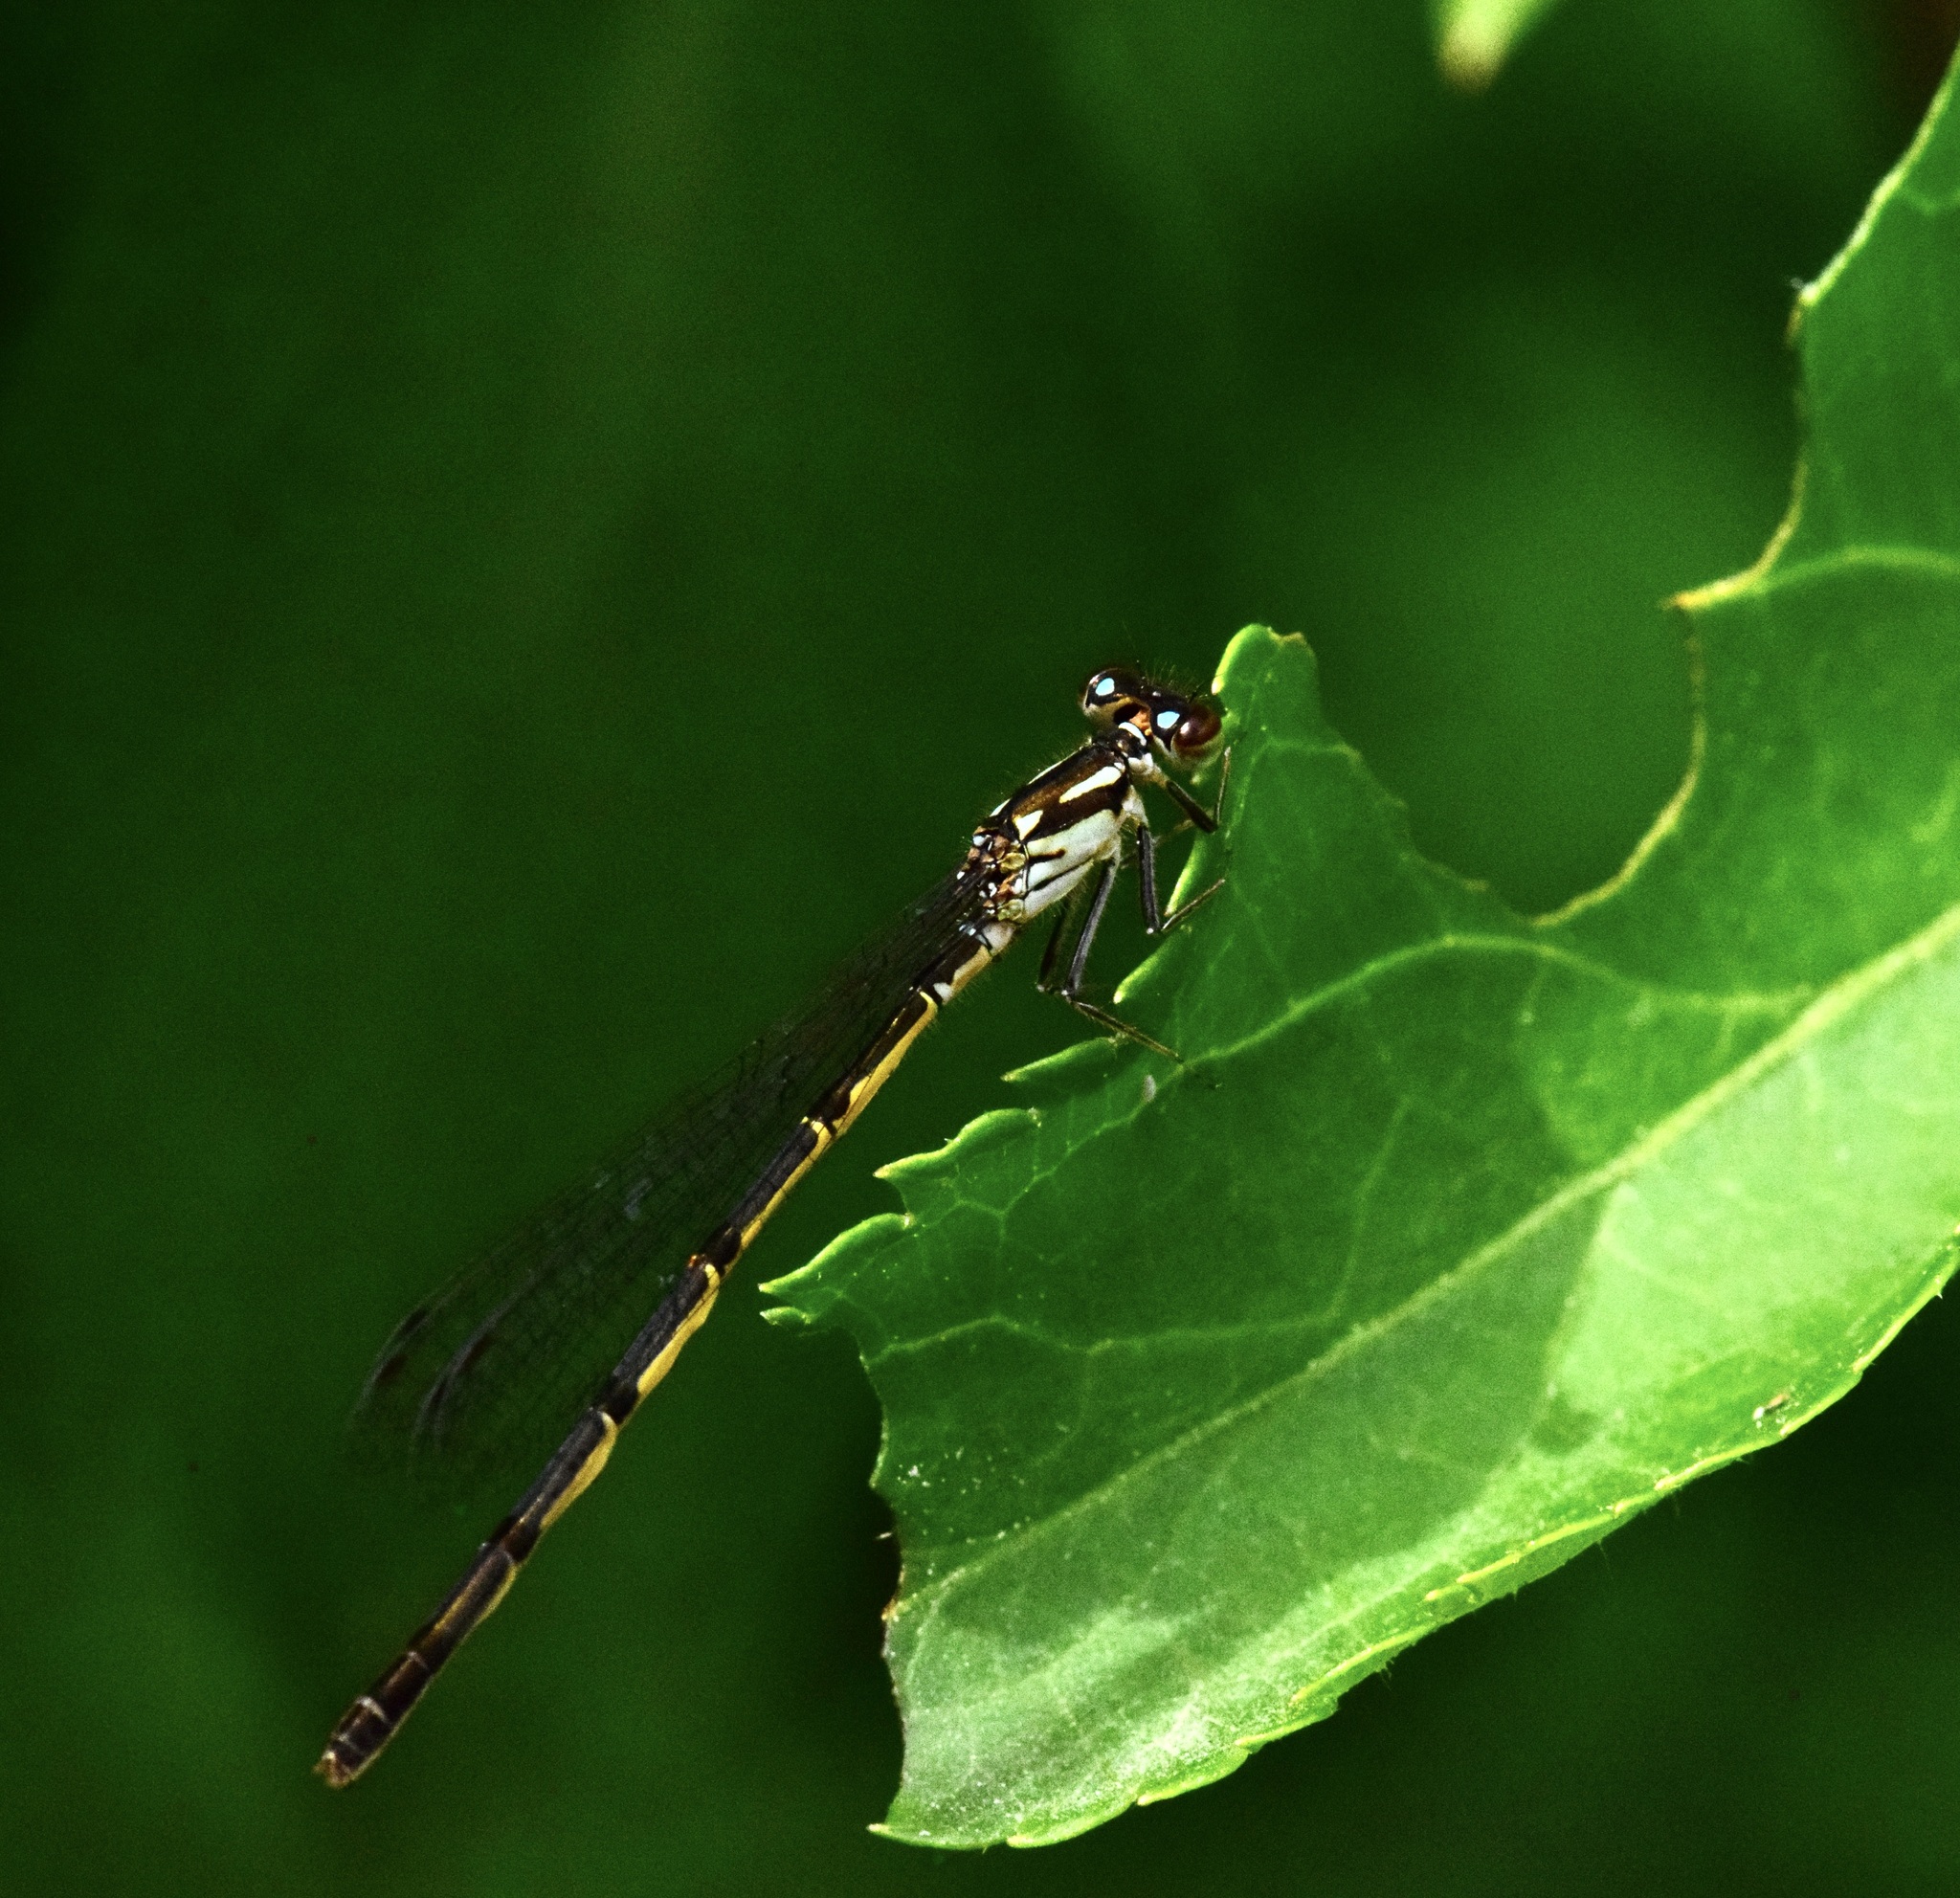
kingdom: Animalia
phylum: Arthropoda
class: Insecta
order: Odonata
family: Coenagrionidae
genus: Ischnura
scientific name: Ischnura posita
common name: Fragile forktail
